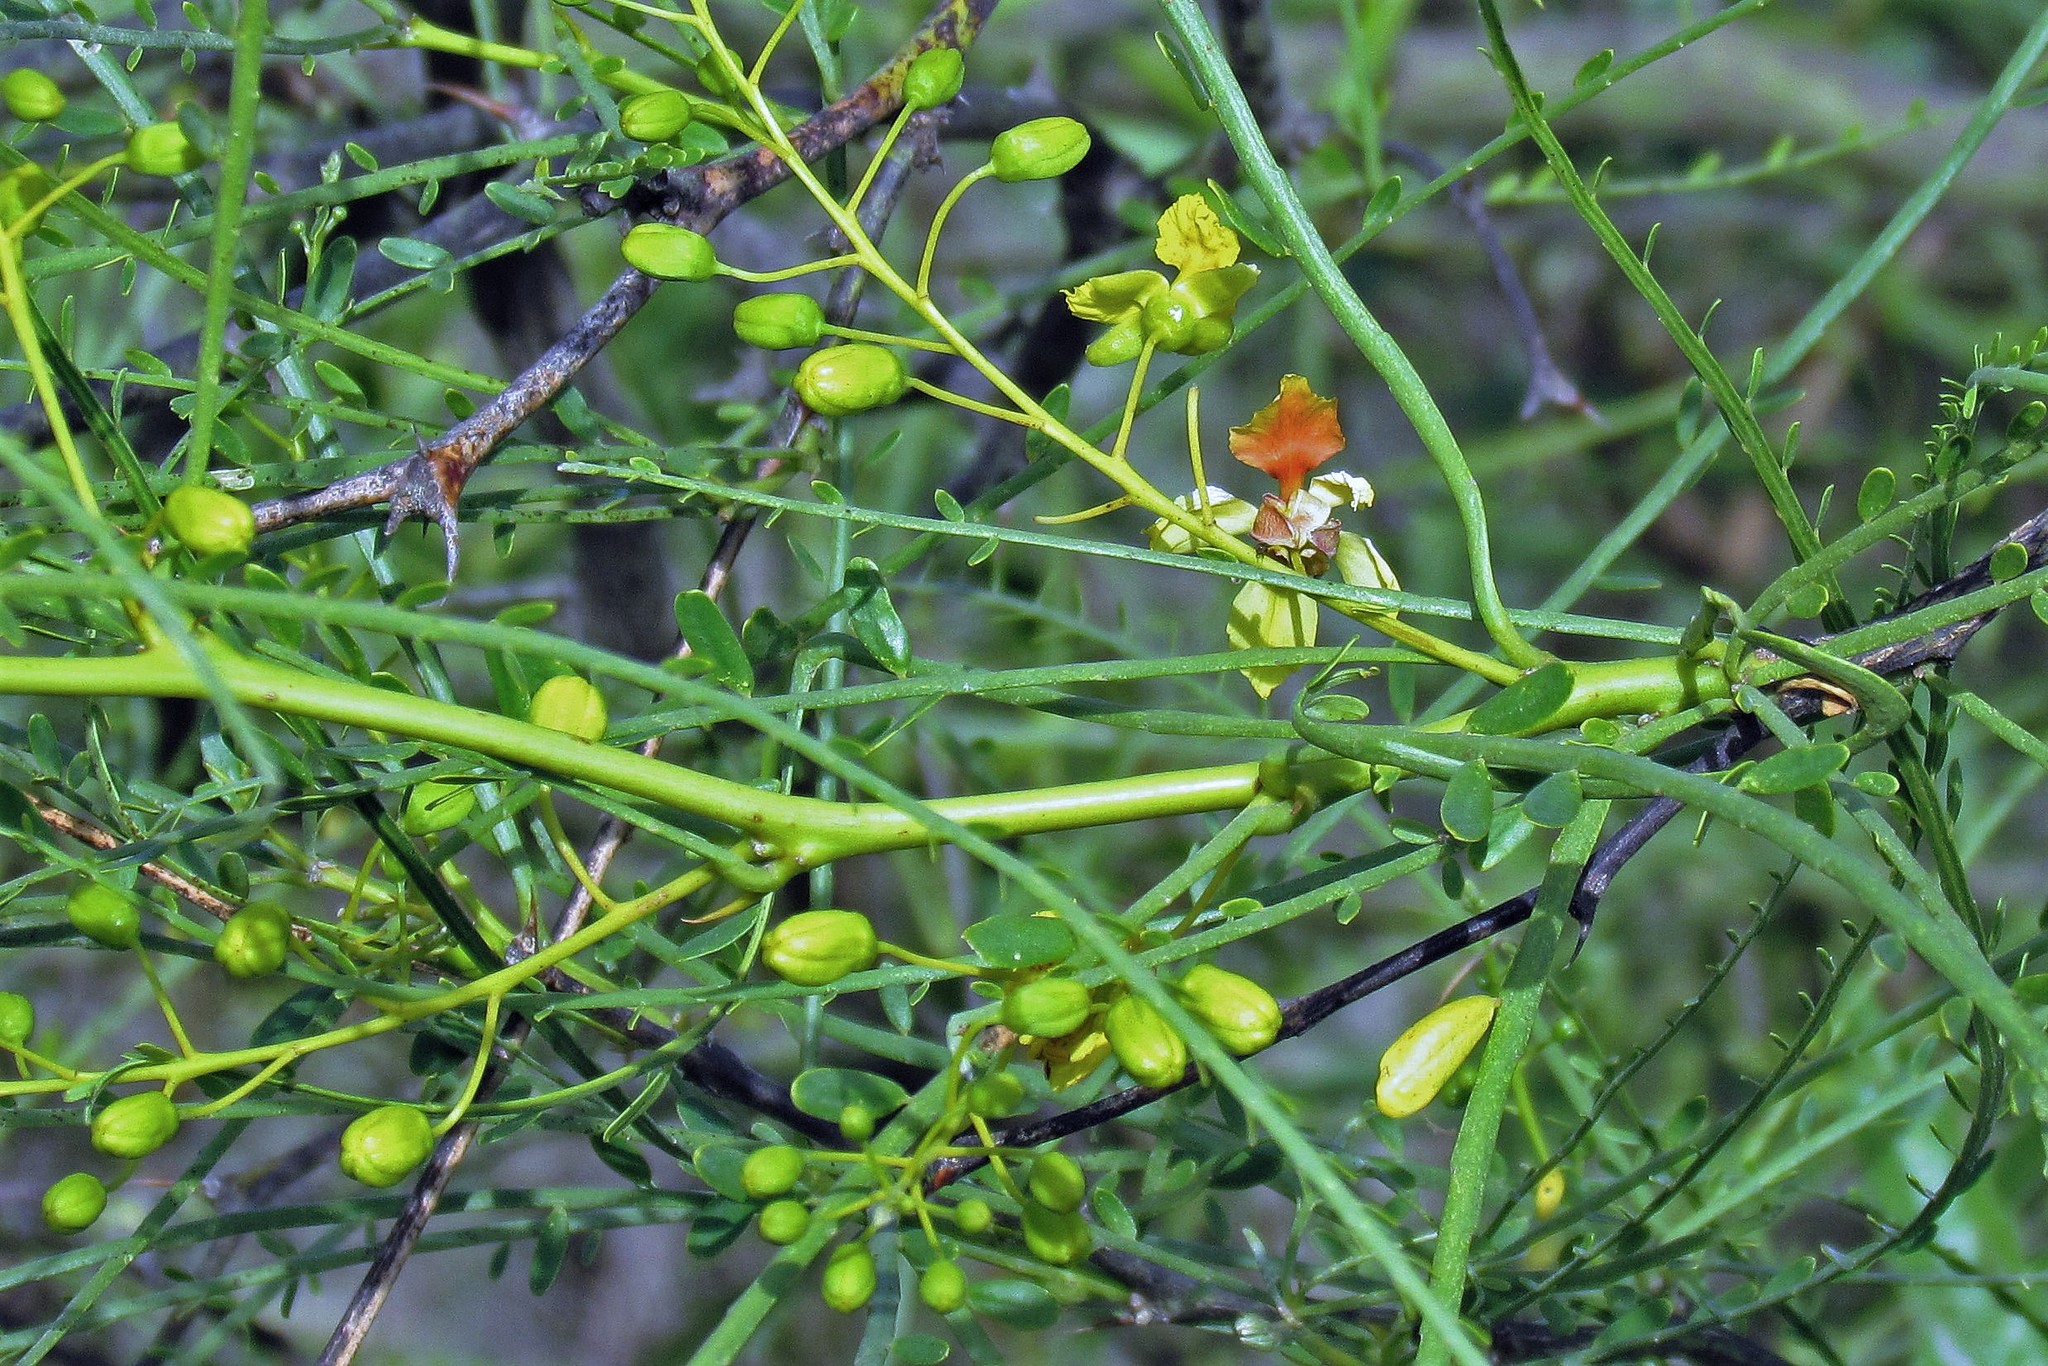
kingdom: Plantae
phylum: Tracheophyta
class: Magnoliopsida
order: Fabales
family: Fabaceae
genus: Parkinsonia
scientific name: Parkinsonia aculeata
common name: Jerusalem thorn
